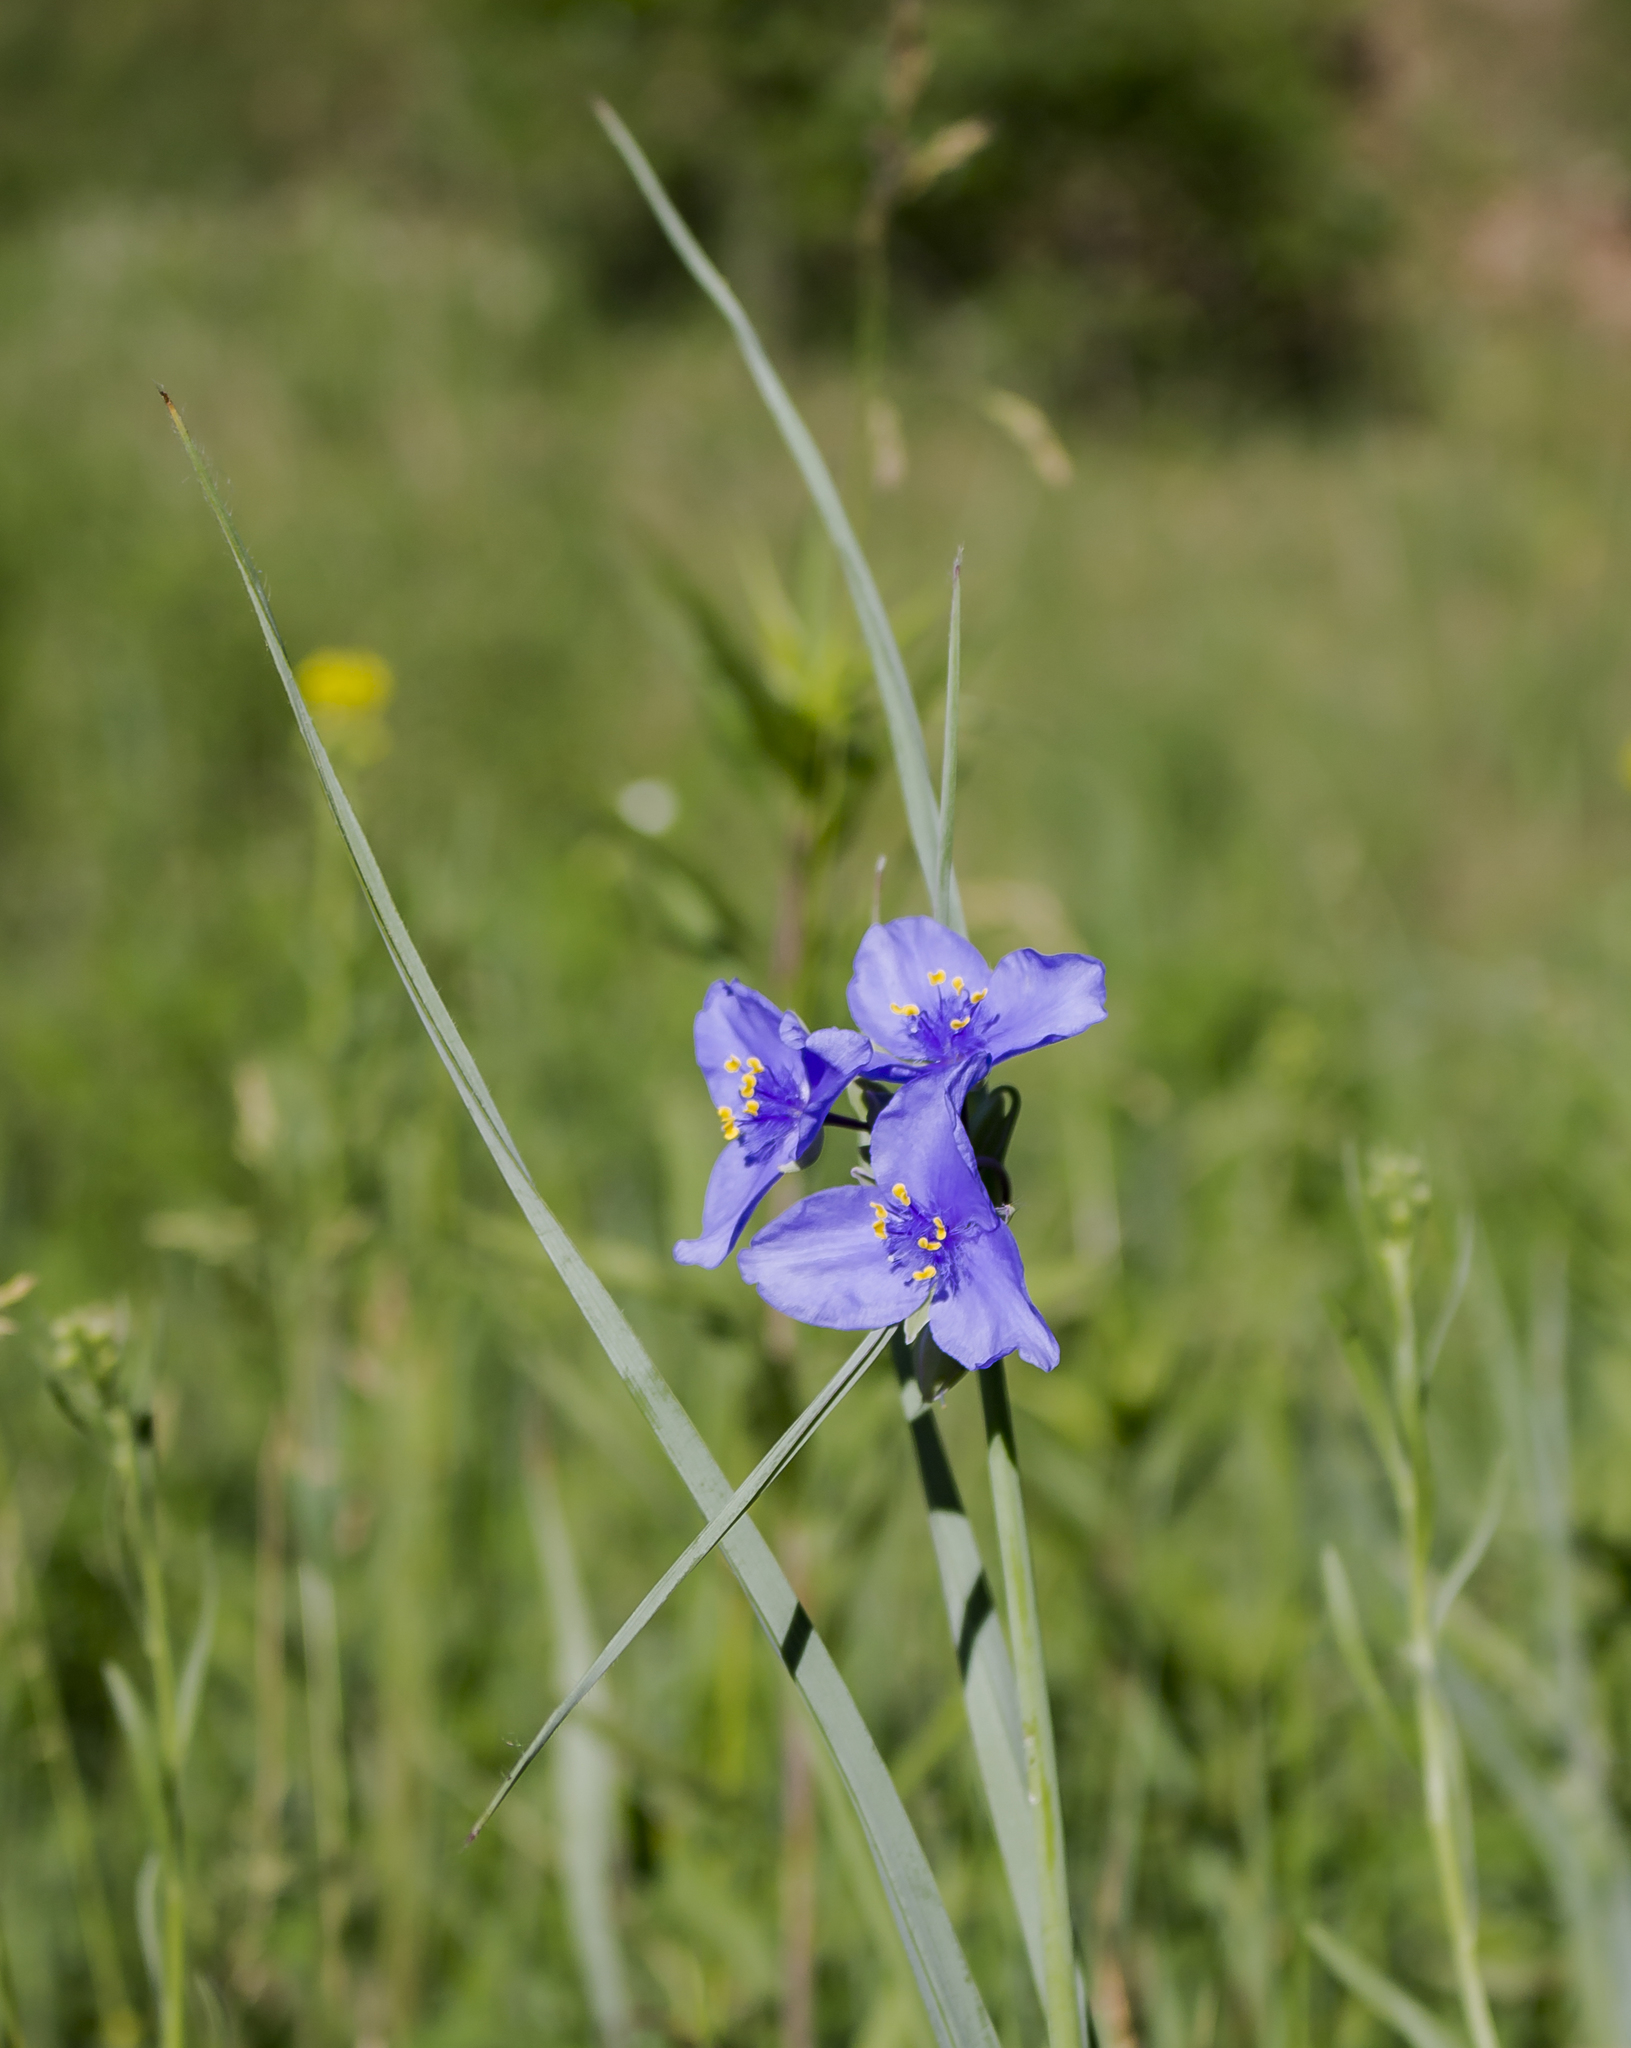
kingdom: Plantae
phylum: Tracheophyta
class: Liliopsida
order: Commelinales
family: Commelinaceae
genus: Tradescantia
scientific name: Tradescantia ohiensis
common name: Ohio spiderwort
